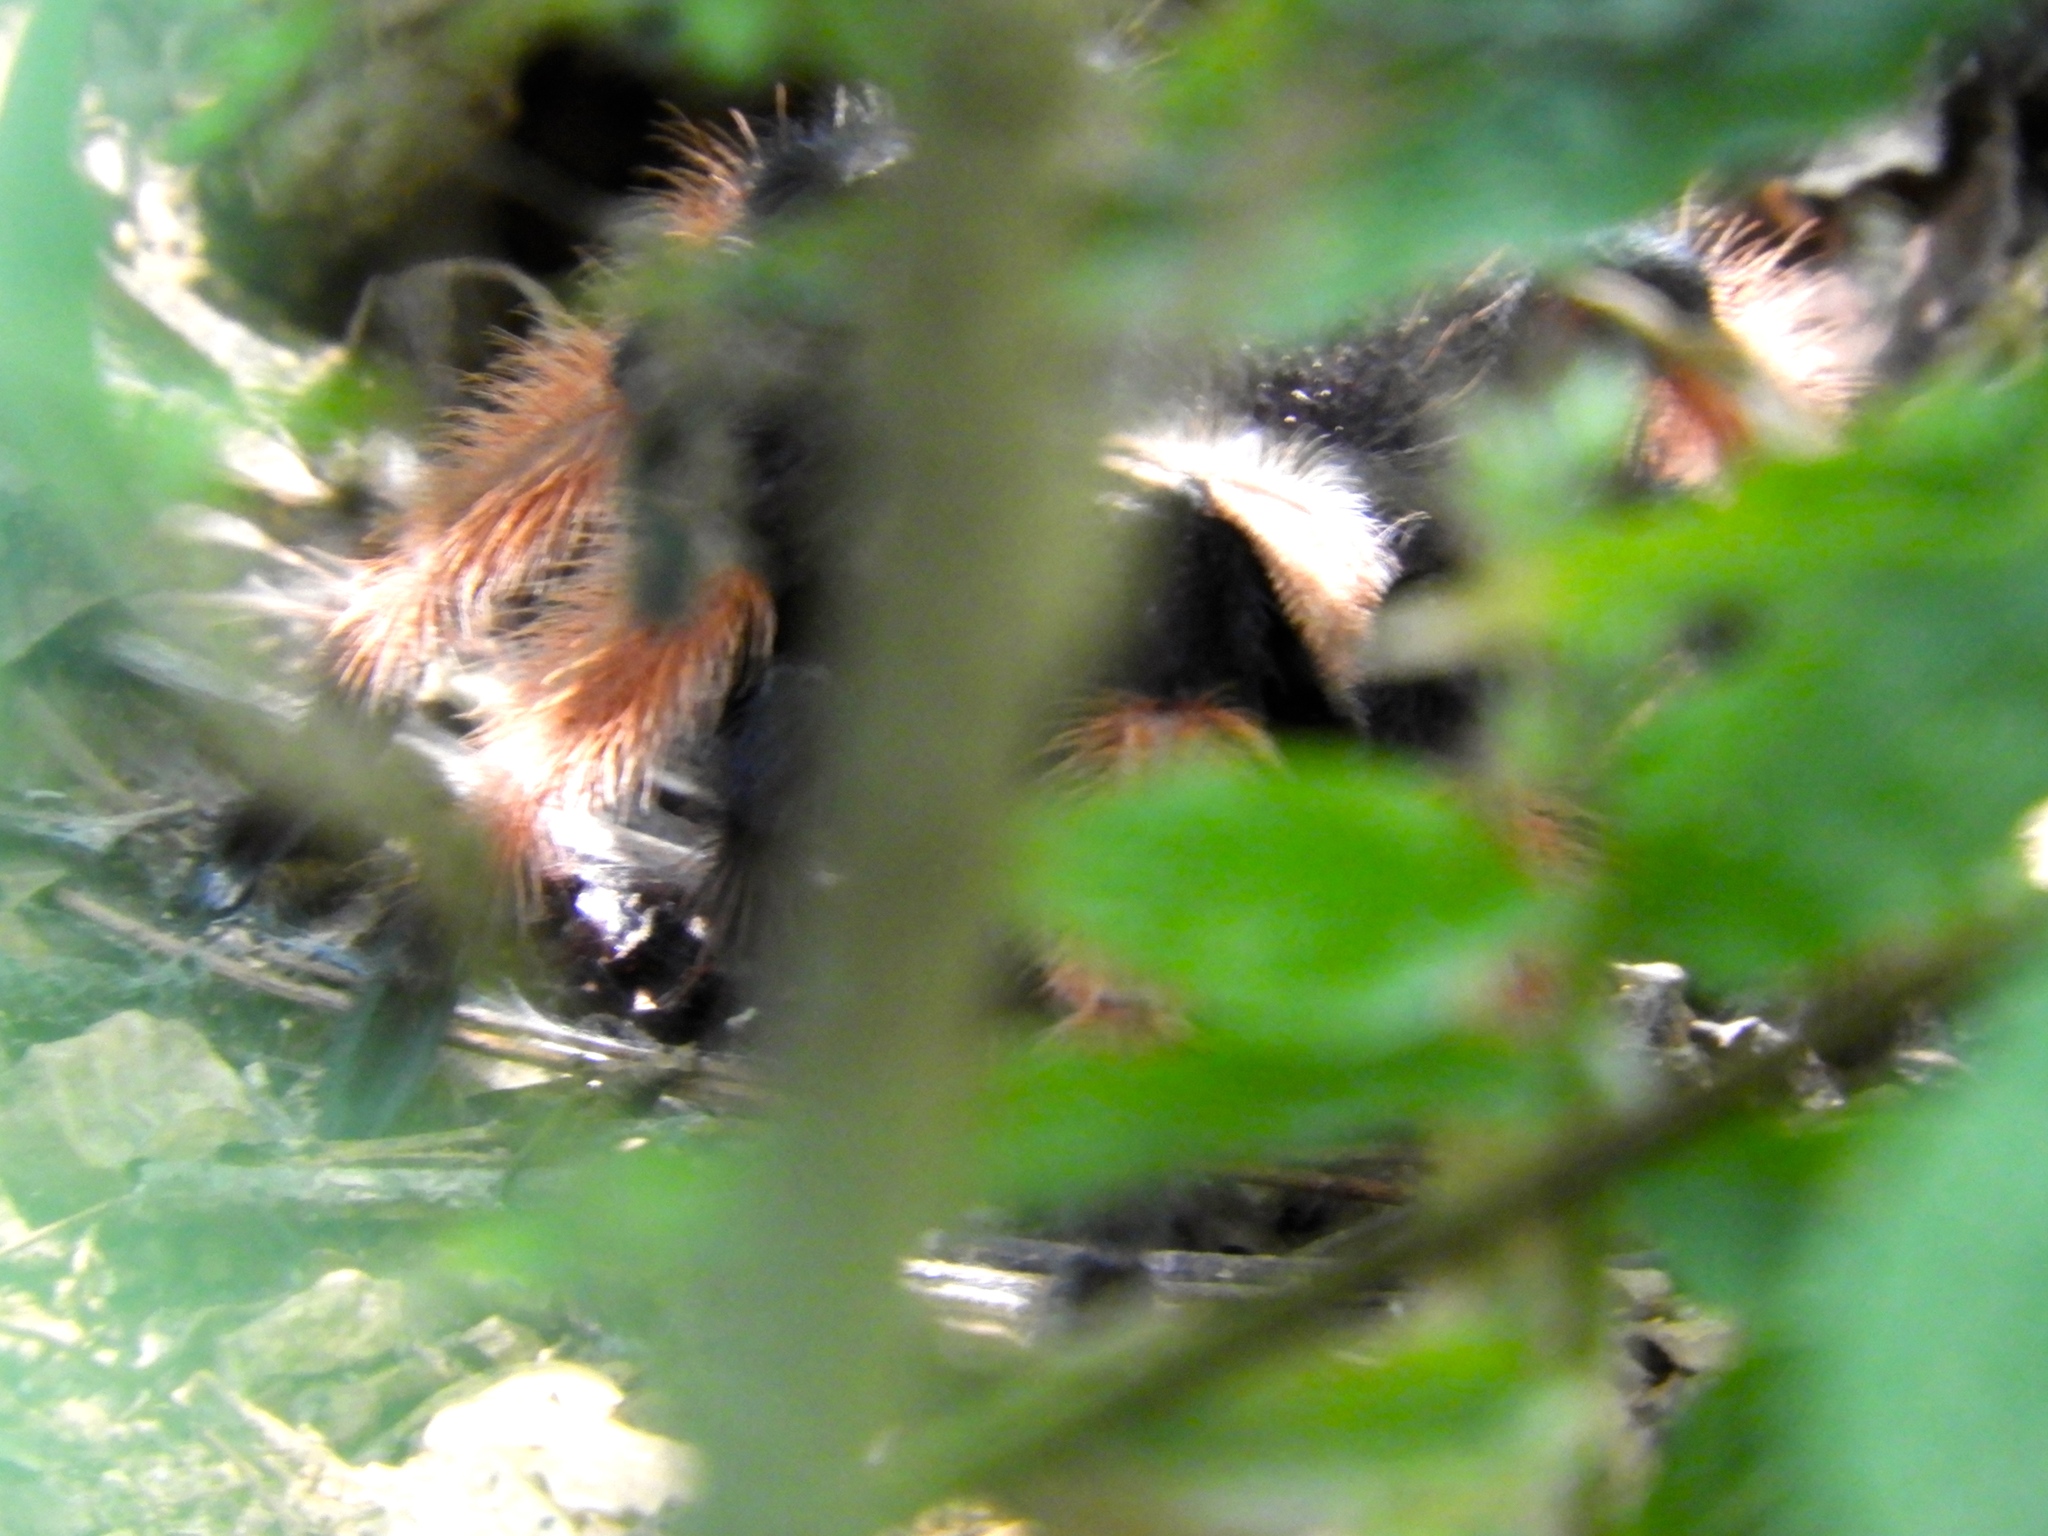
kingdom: Animalia
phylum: Arthropoda
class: Arachnida
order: Araneae
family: Theraphosidae
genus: Brachypelma
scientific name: Brachypelma emilia
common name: Mexican redleg
